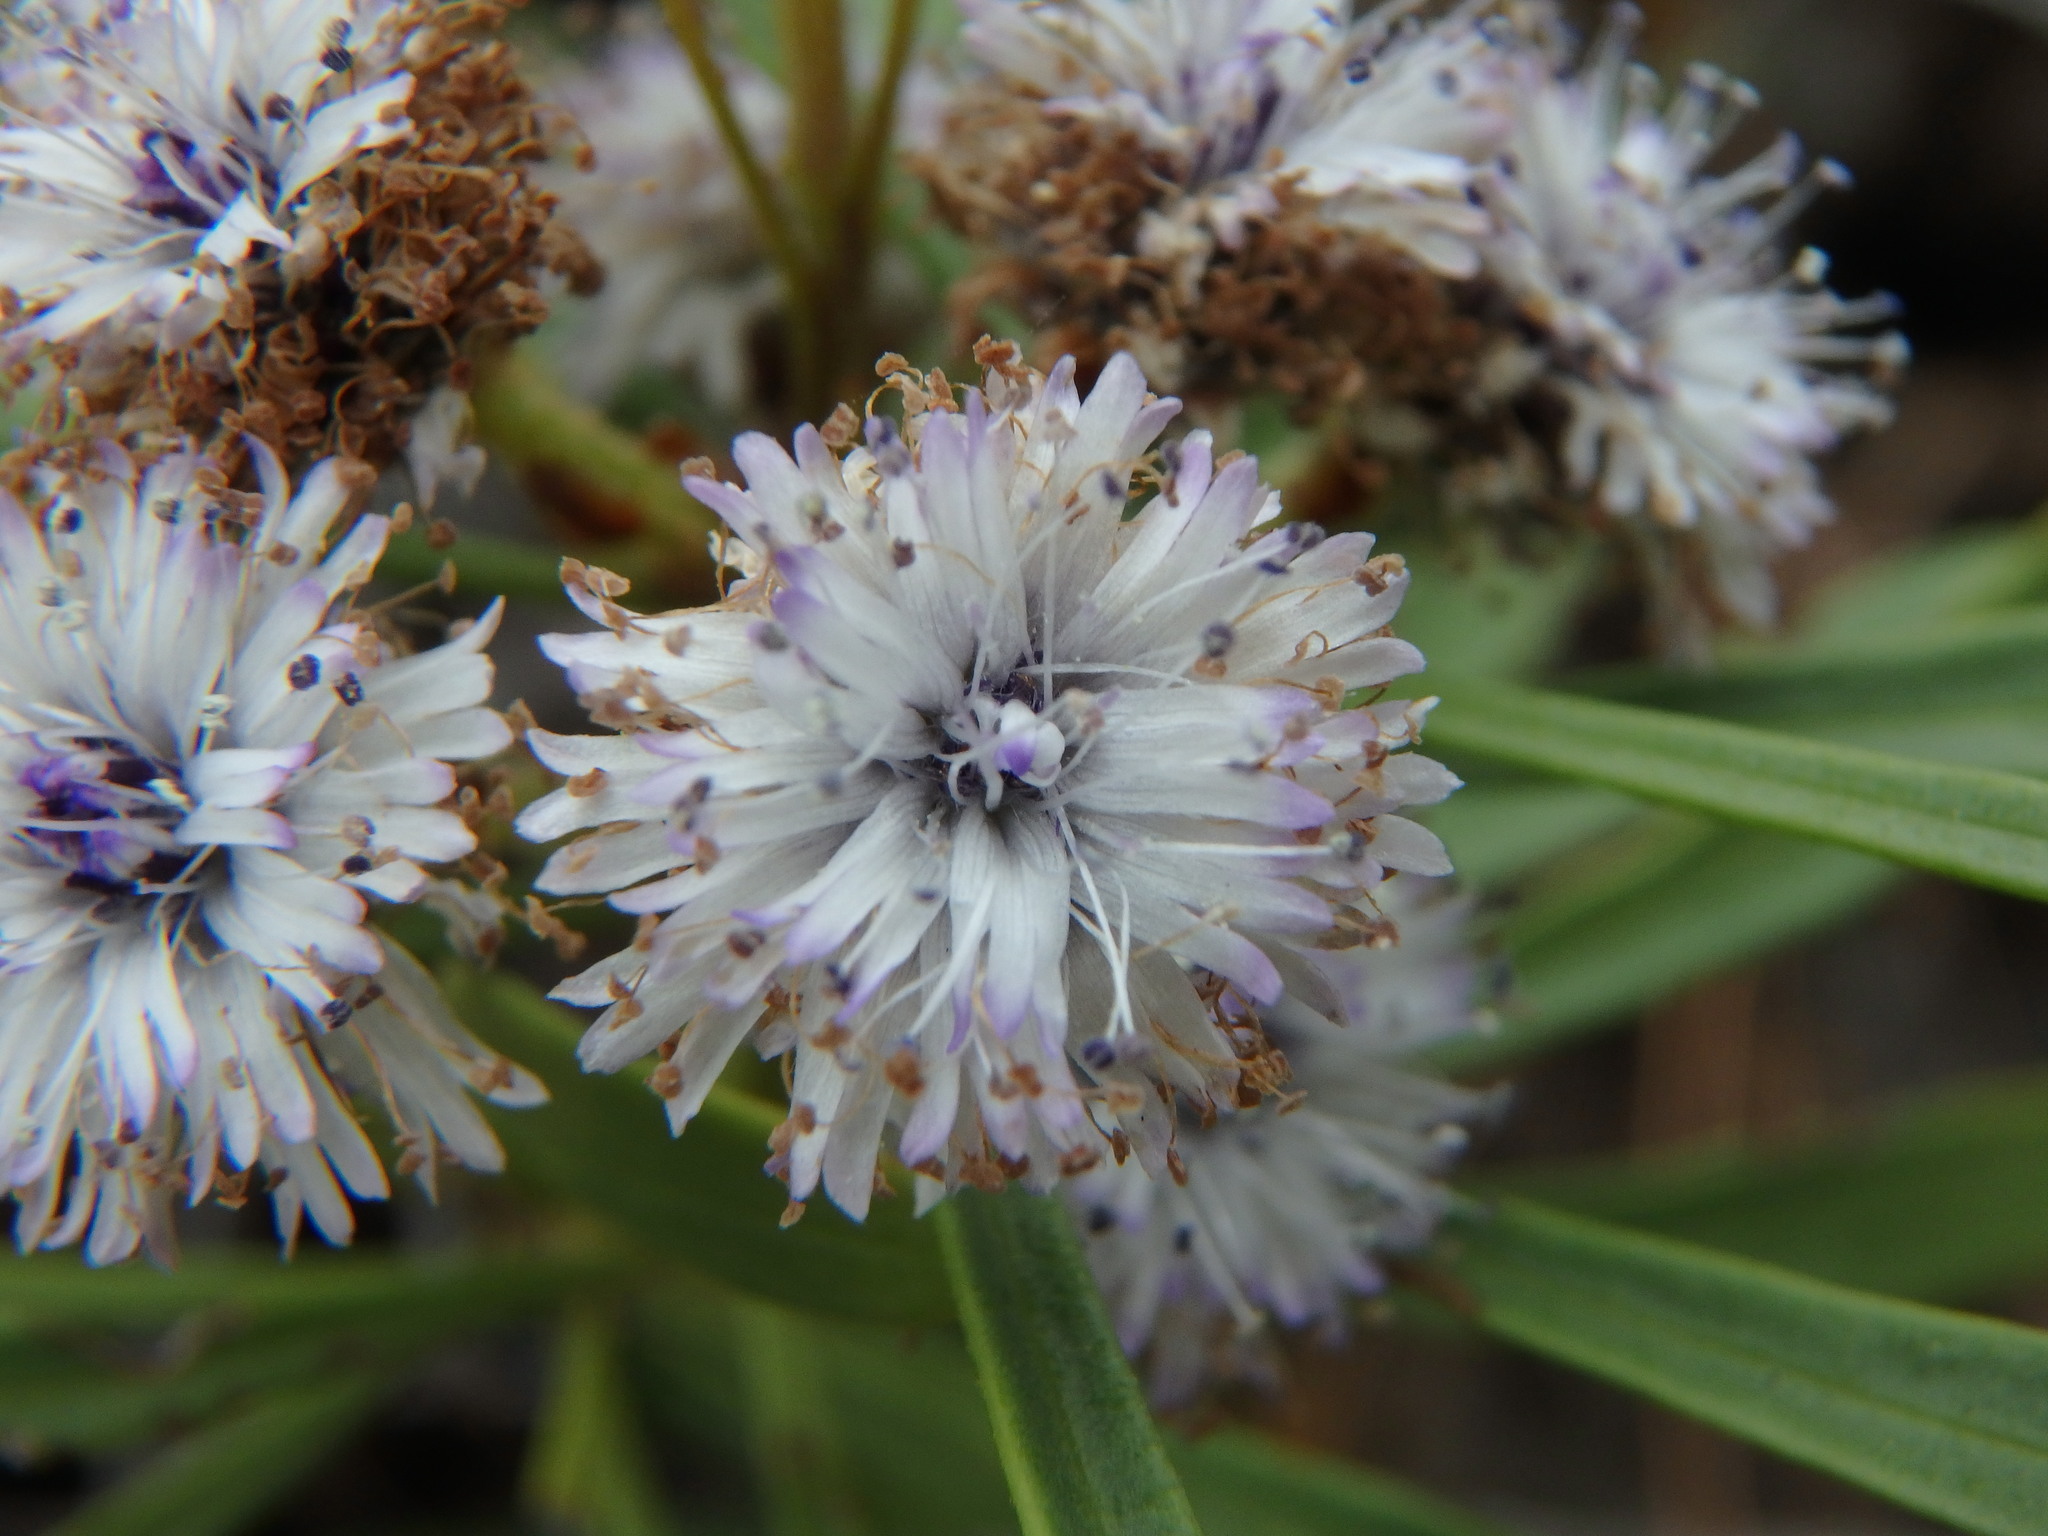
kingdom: Plantae
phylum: Tracheophyta
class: Magnoliopsida
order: Lamiales
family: Plantaginaceae
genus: Globularia
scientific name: Globularia salicina
